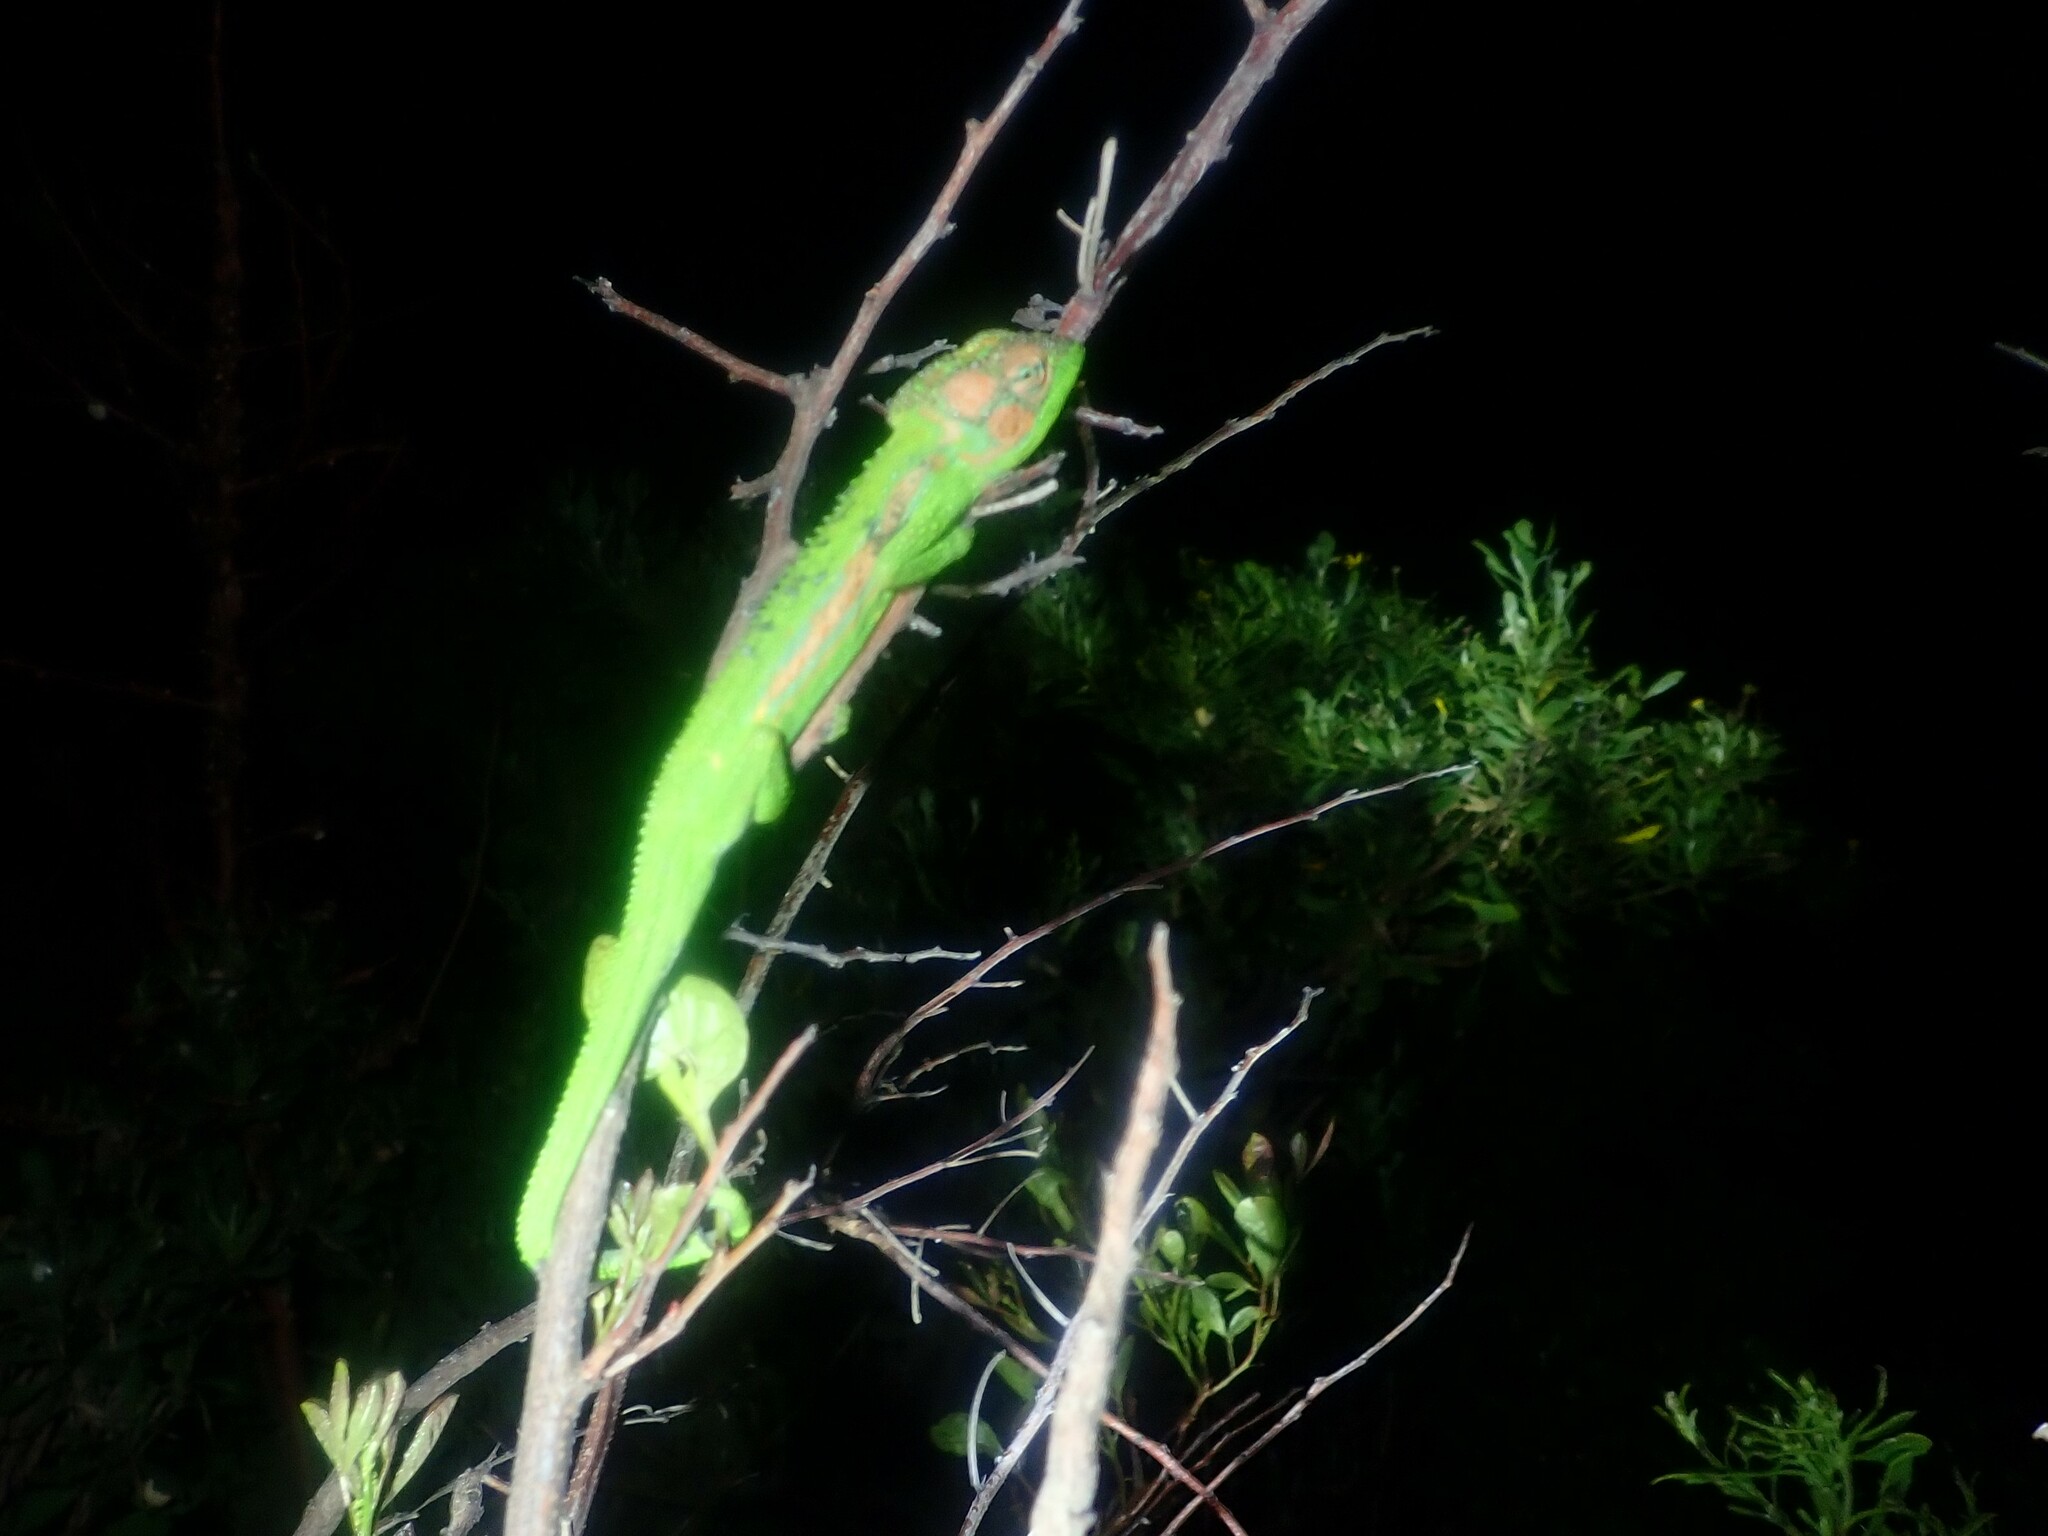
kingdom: Animalia
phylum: Chordata
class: Squamata
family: Chamaeleonidae
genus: Bradypodion
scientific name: Bradypodion pumilum
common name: Cape dwarf chameleon
